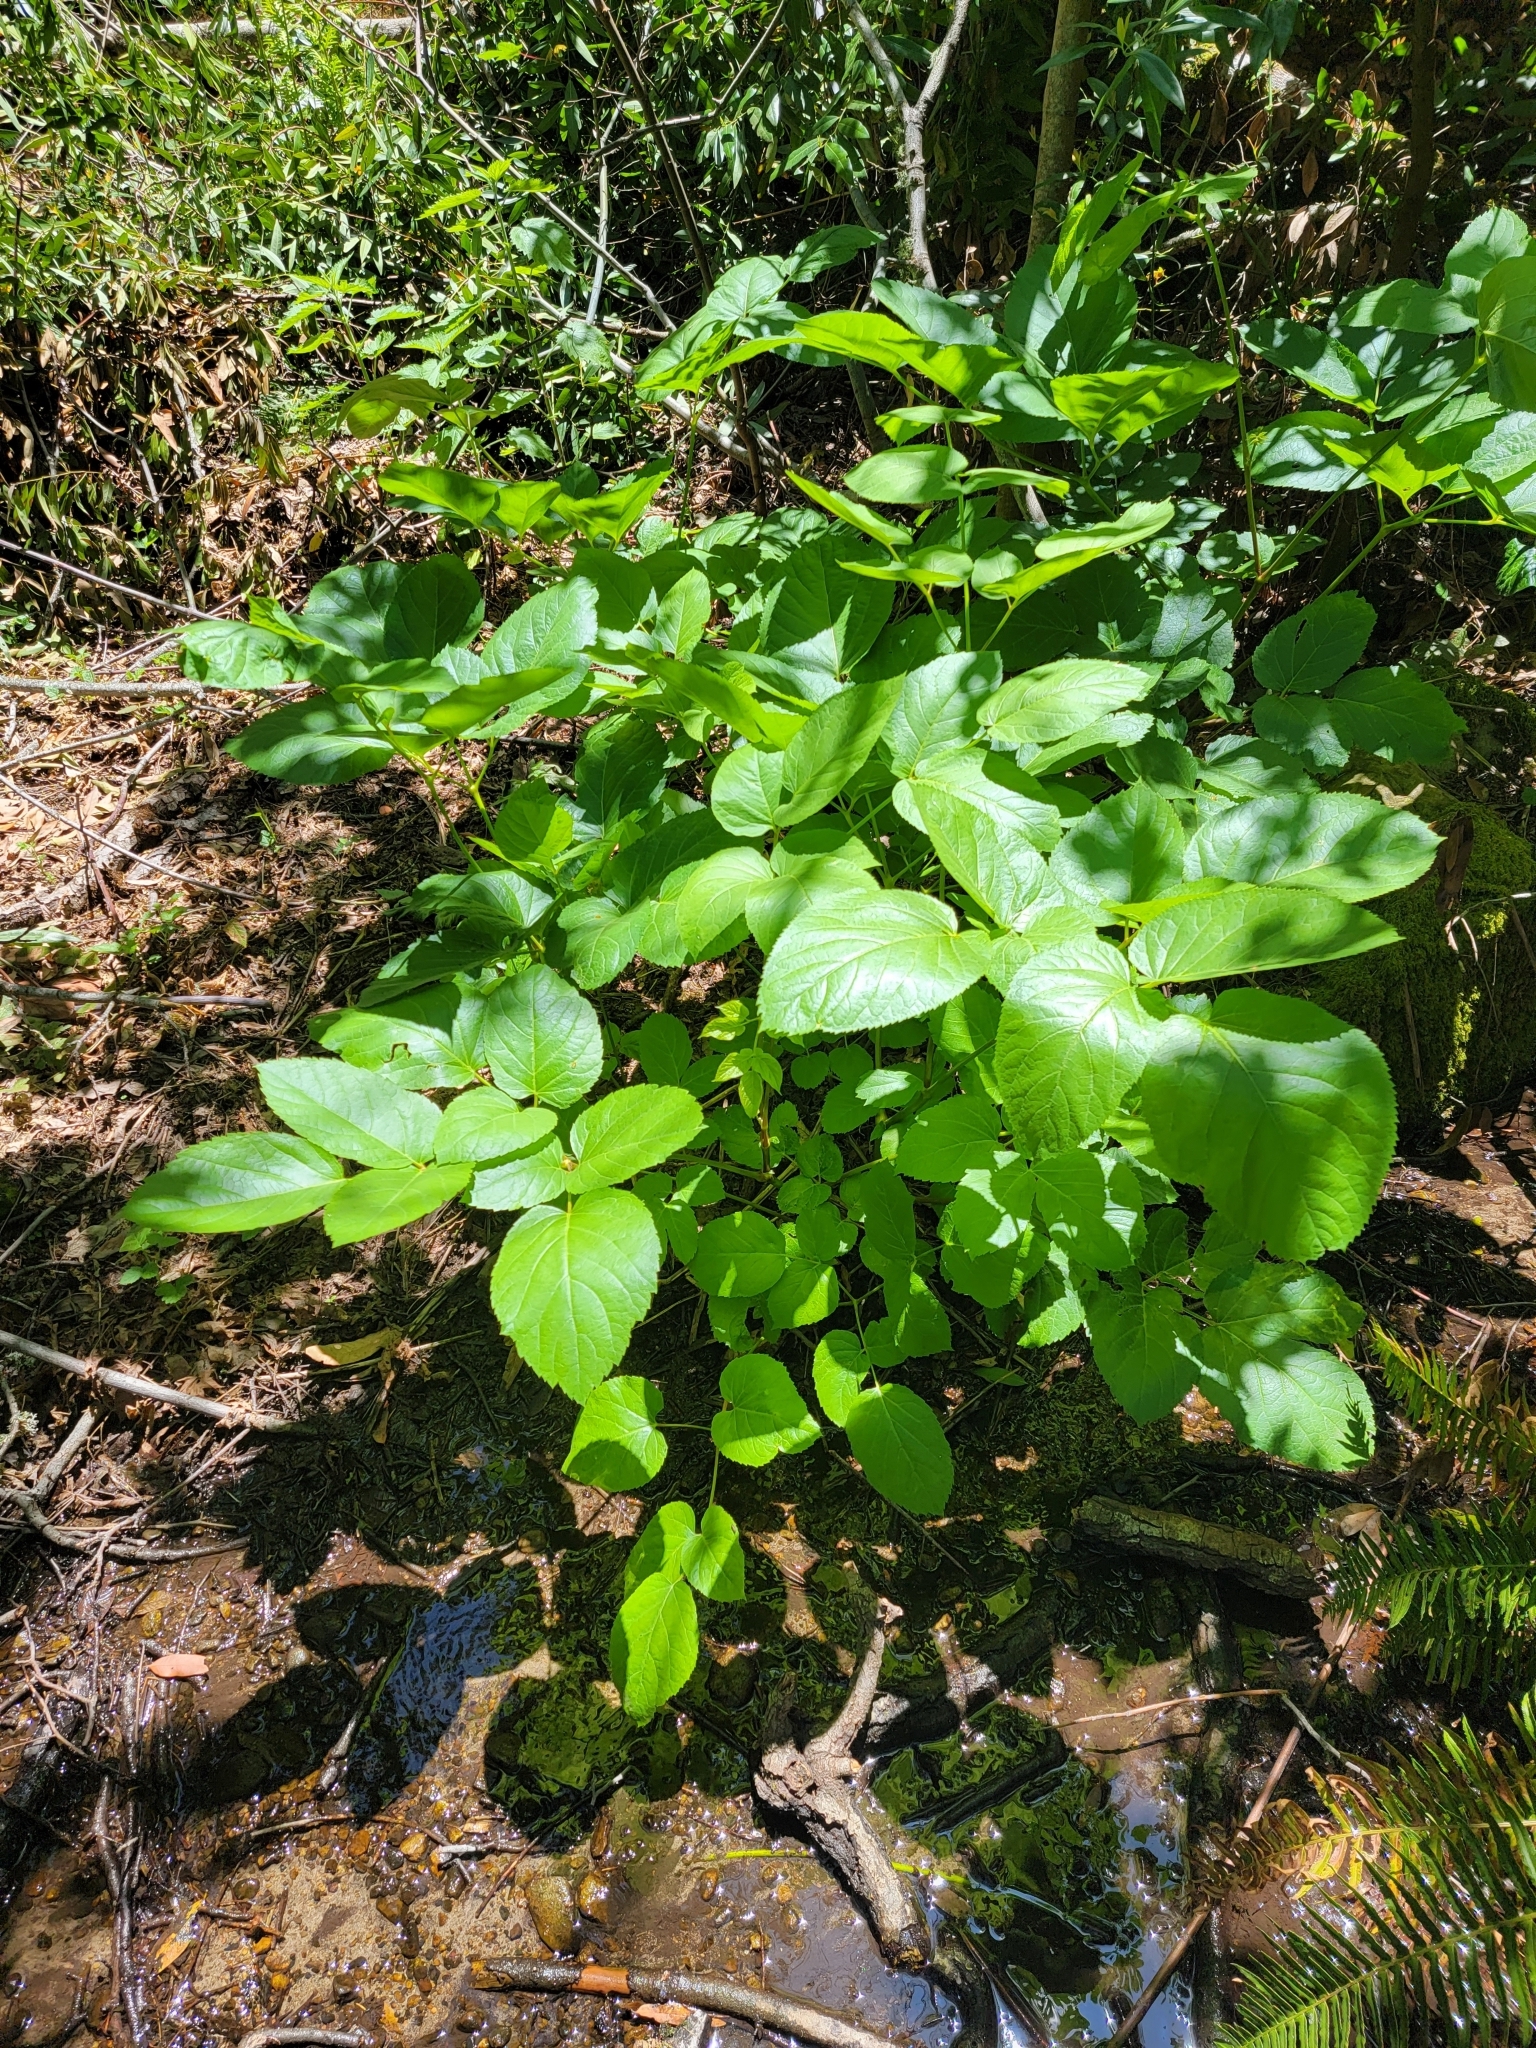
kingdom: Plantae
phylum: Tracheophyta
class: Magnoliopsida
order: Apiales
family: Araliaceae
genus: Aralia
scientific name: Aralia californica
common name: California-ginseng
